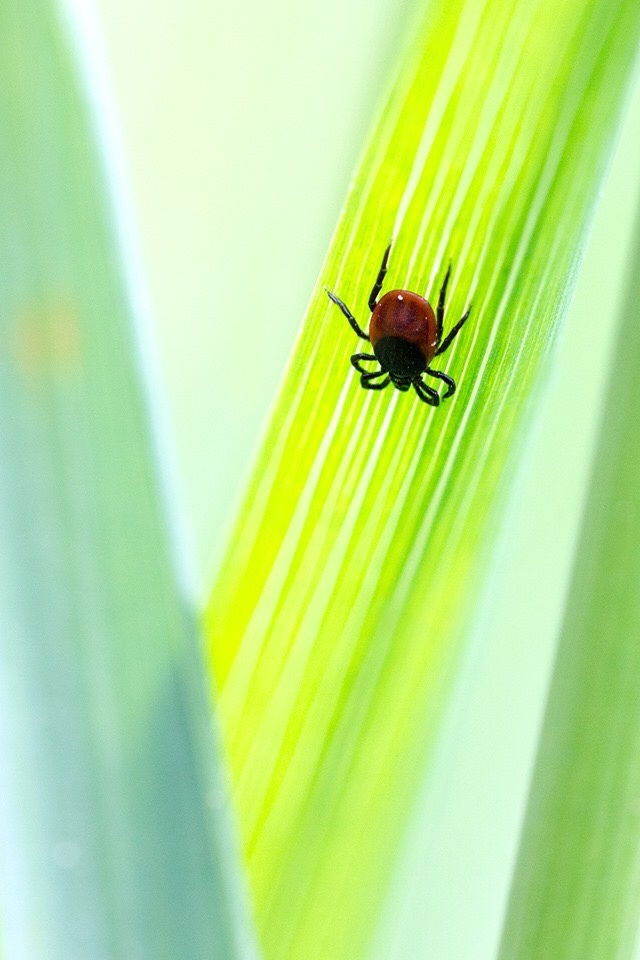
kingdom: Animalia
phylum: Arthropoda
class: Arachnida
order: Ixodida
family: Ixodidae
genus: Ixodes
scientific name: Ixodes ricinus
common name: Castor bean tick
